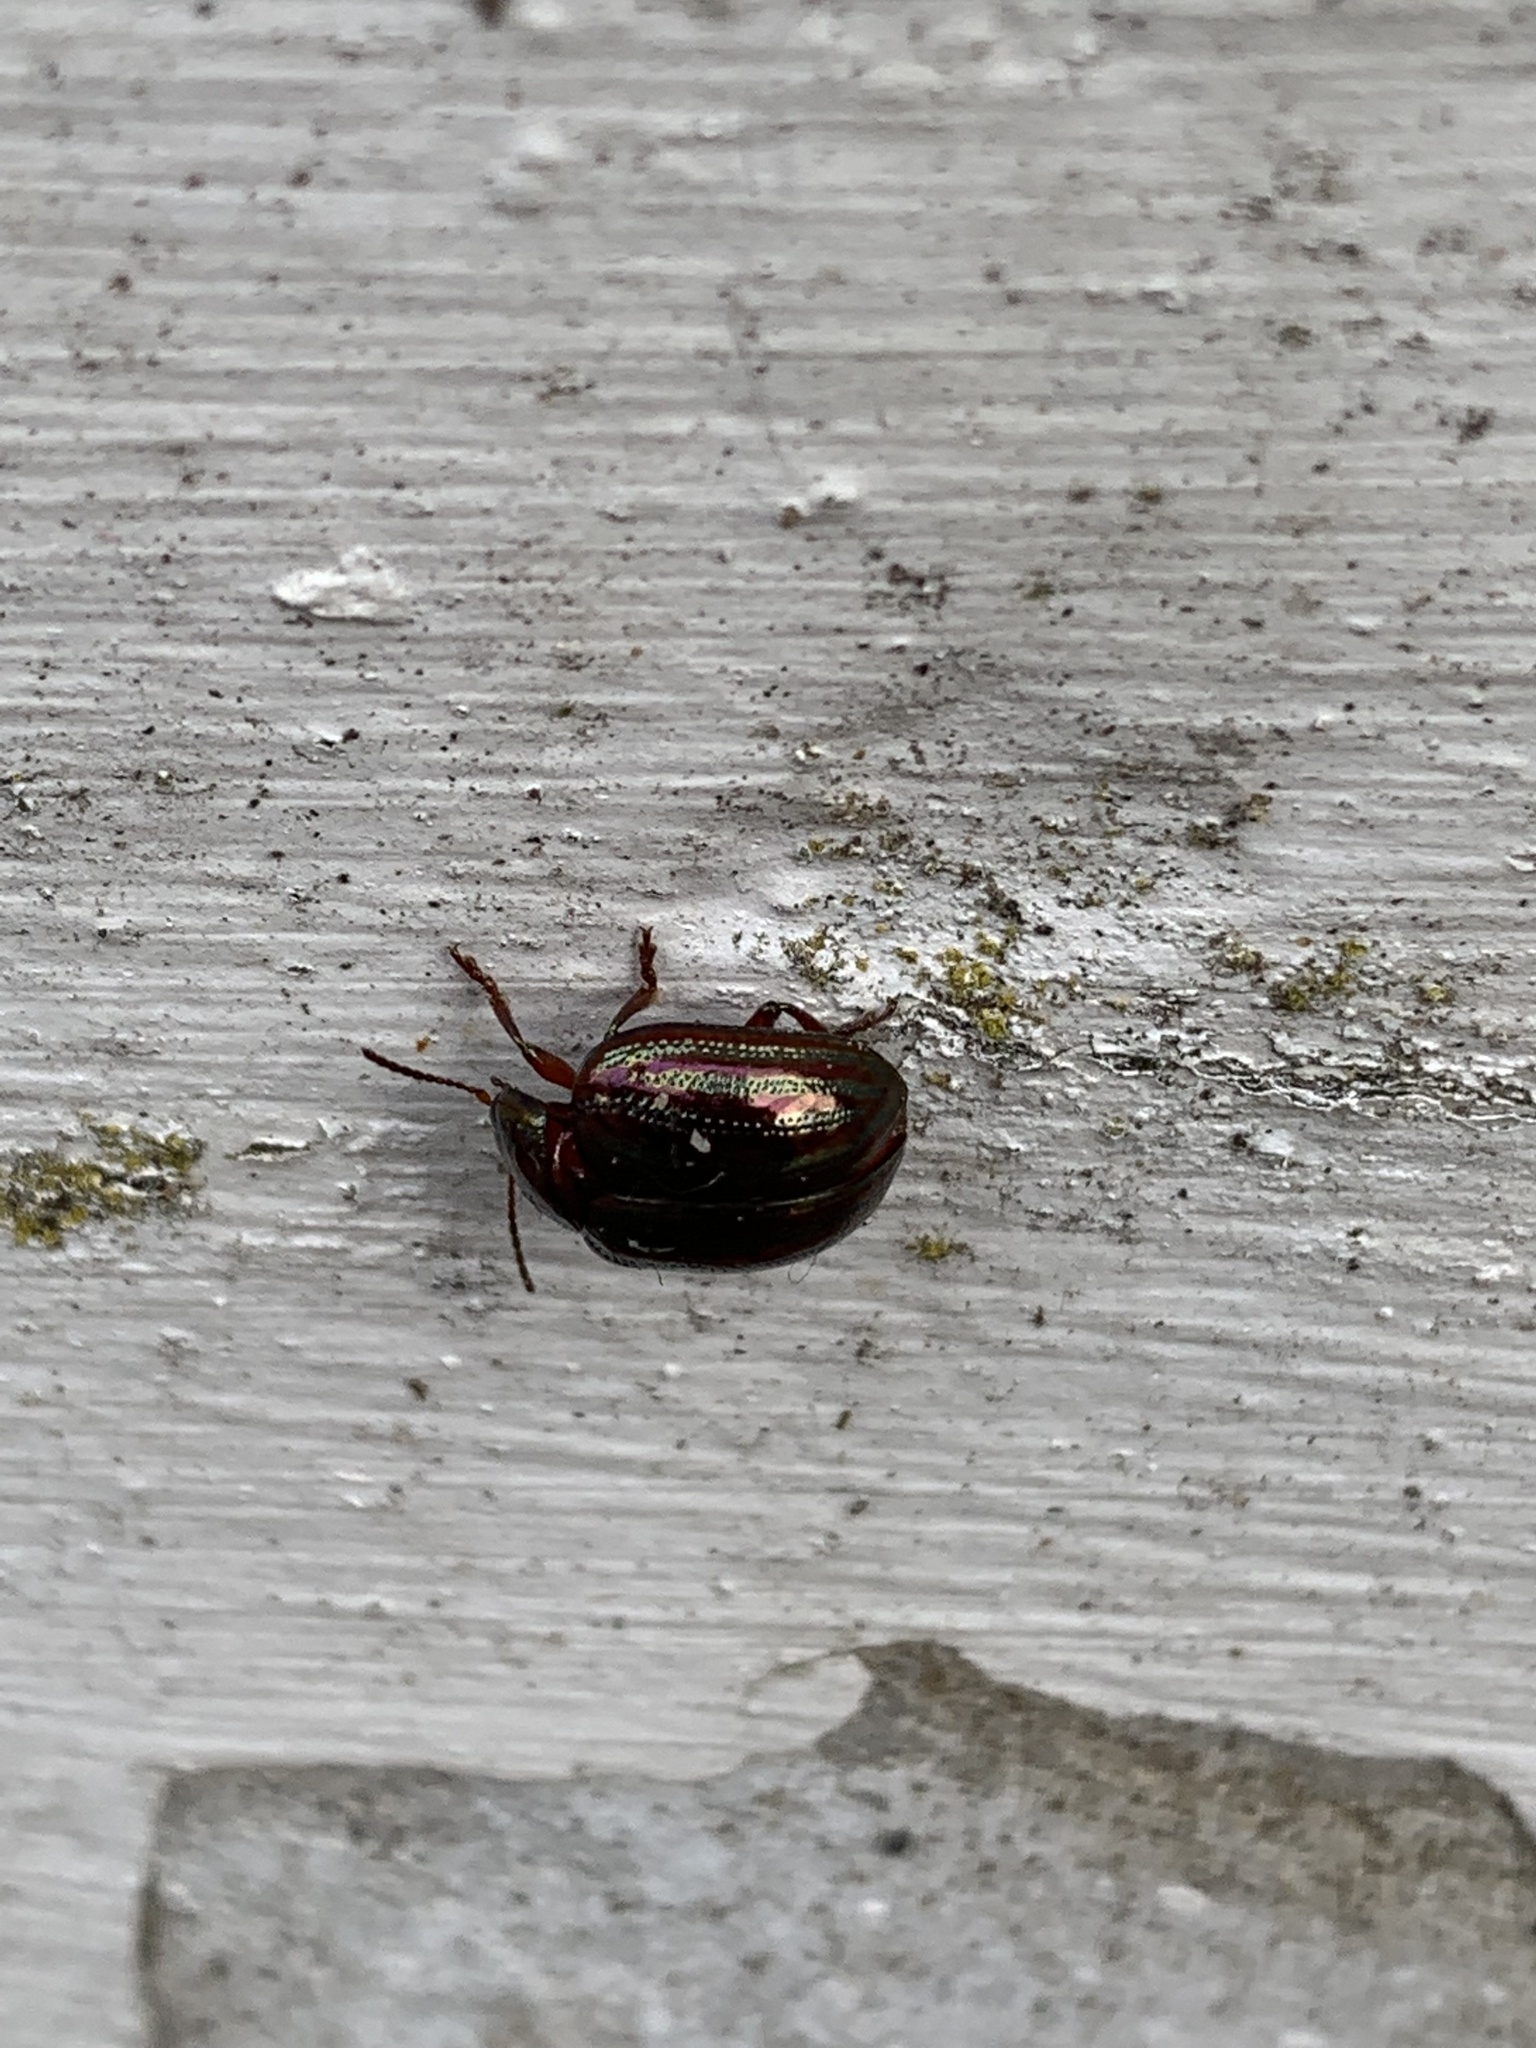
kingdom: Animalia
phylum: Arthropoda
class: Insecta
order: Coleoptera
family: Chrysomelidae
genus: Chrysolina
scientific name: Chrysolina americana
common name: Rosemary beetle
